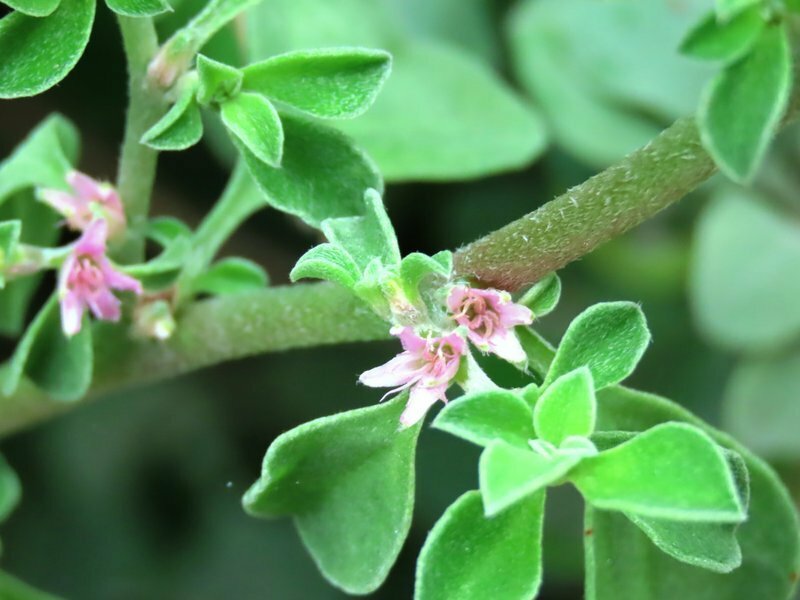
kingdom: Plantae
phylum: Tracheophyta
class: Magnoliopsida
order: Caryophyllales
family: Aizoaceae
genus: Aizoon
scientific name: Aizoon pubescens
